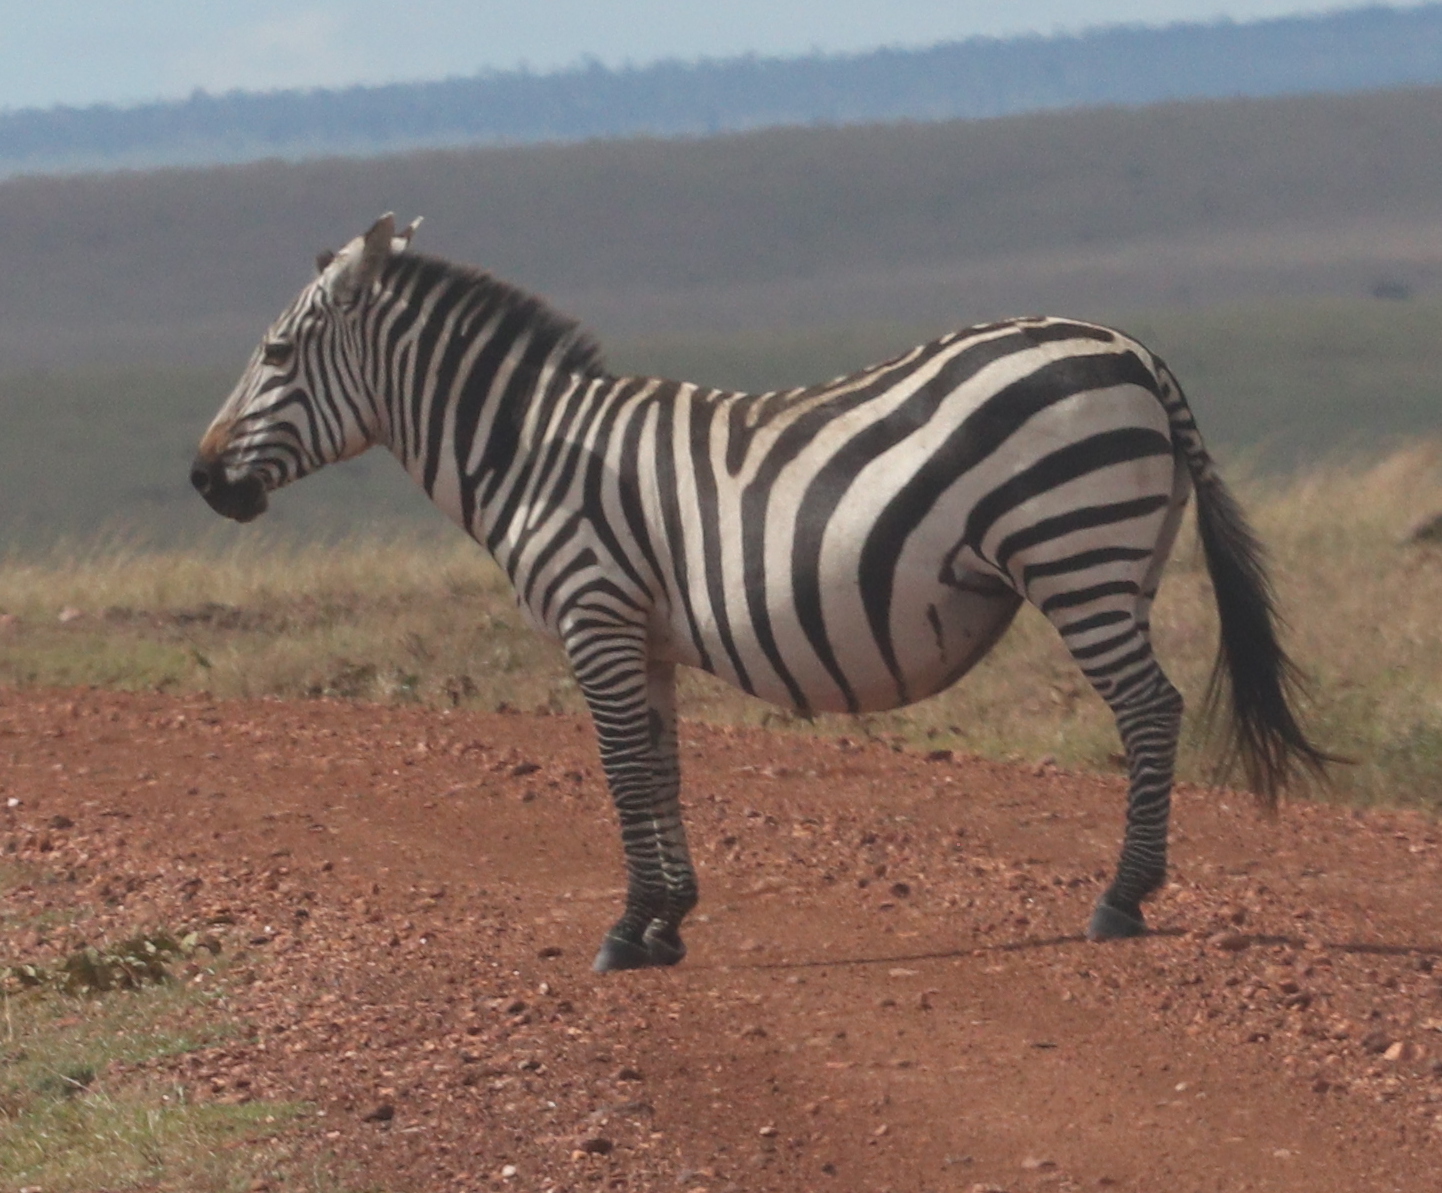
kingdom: Animalia
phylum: Chordata
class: Mammalia
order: Perissodactyla
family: Equidae
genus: Equus
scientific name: Equus quagga
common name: Plains zebra
